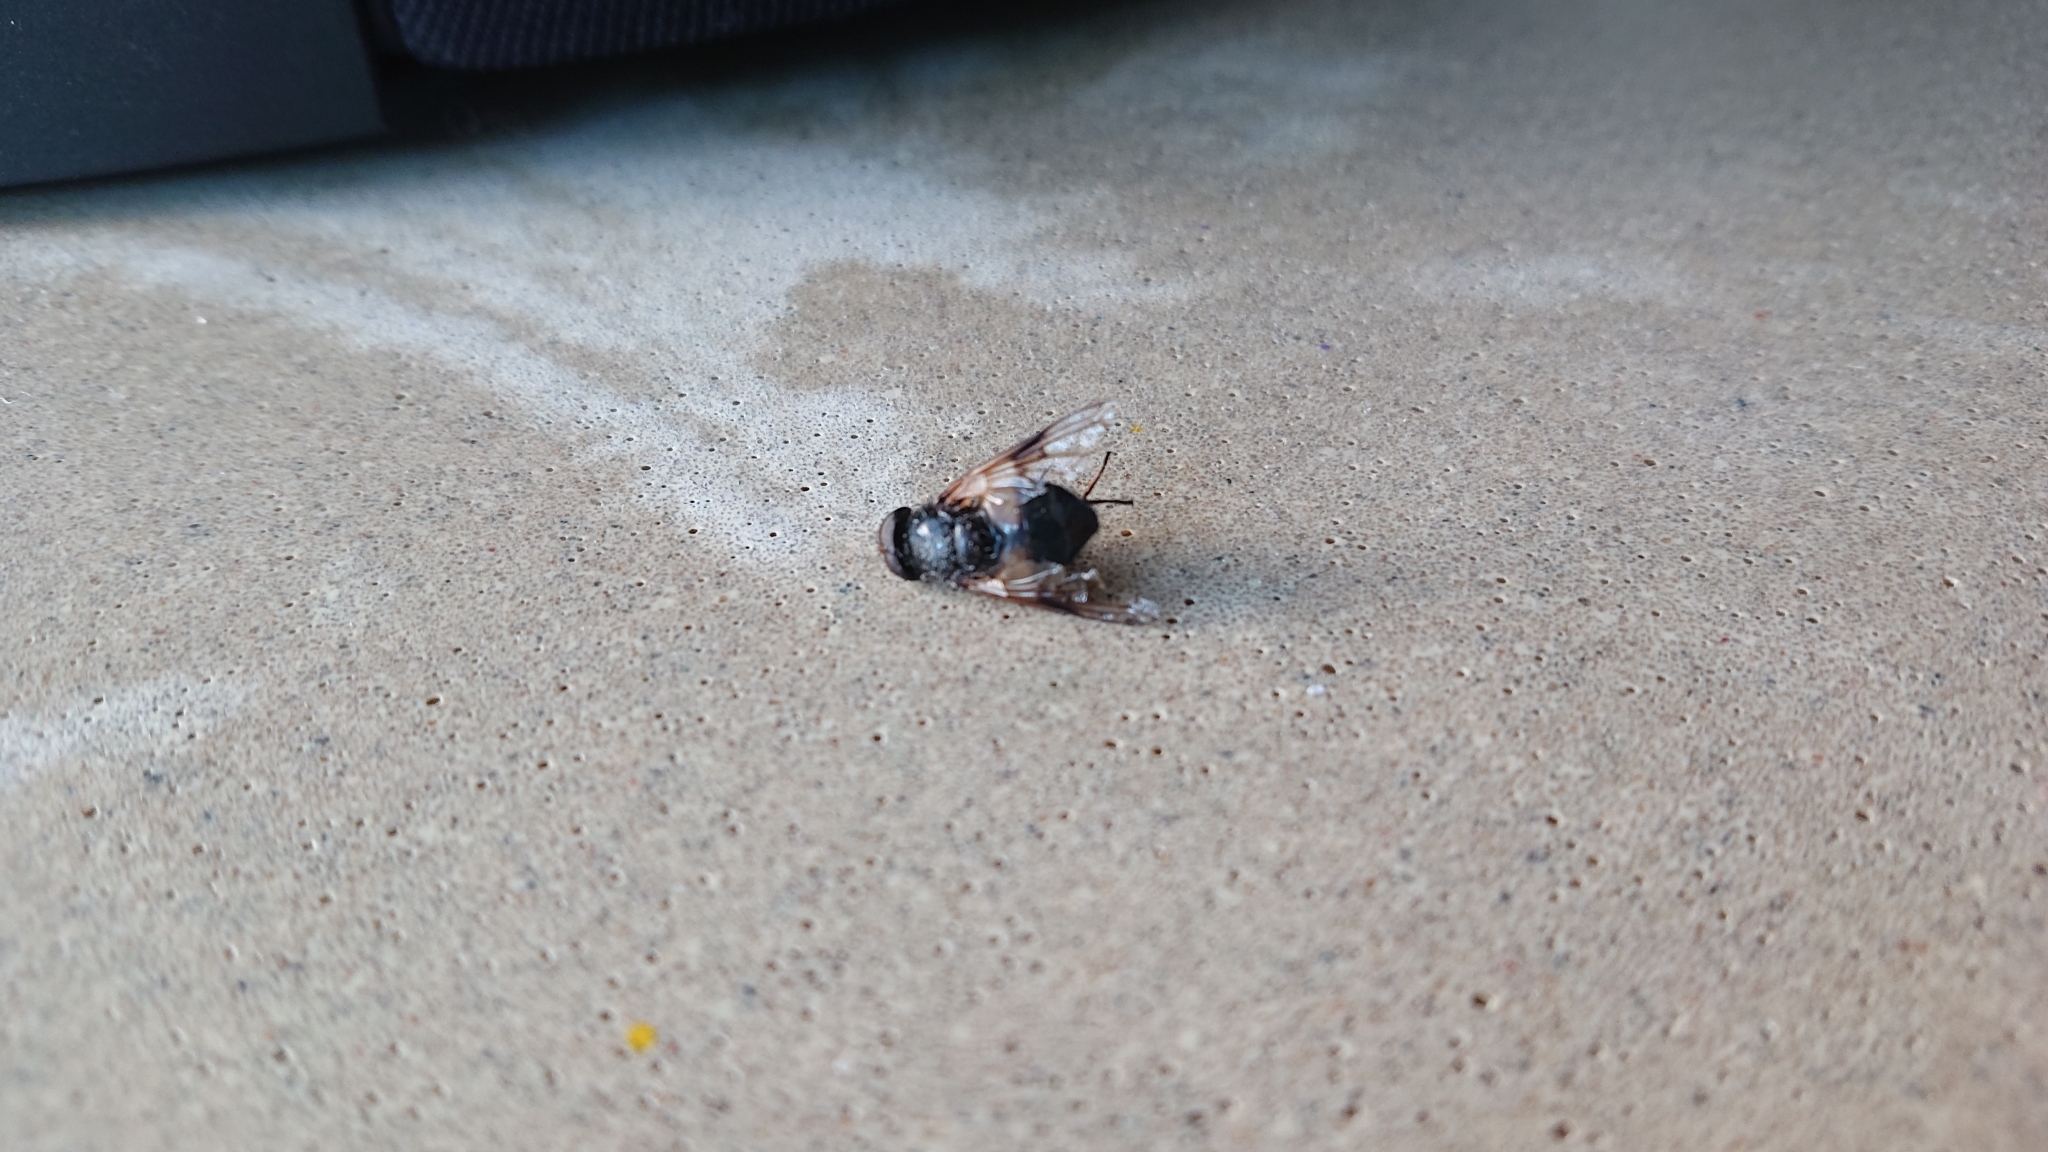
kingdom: Animalia
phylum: Arthropoda
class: Insecta
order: Diptera
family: Syrphidae
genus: Volucella
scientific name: Volucella pellucens
